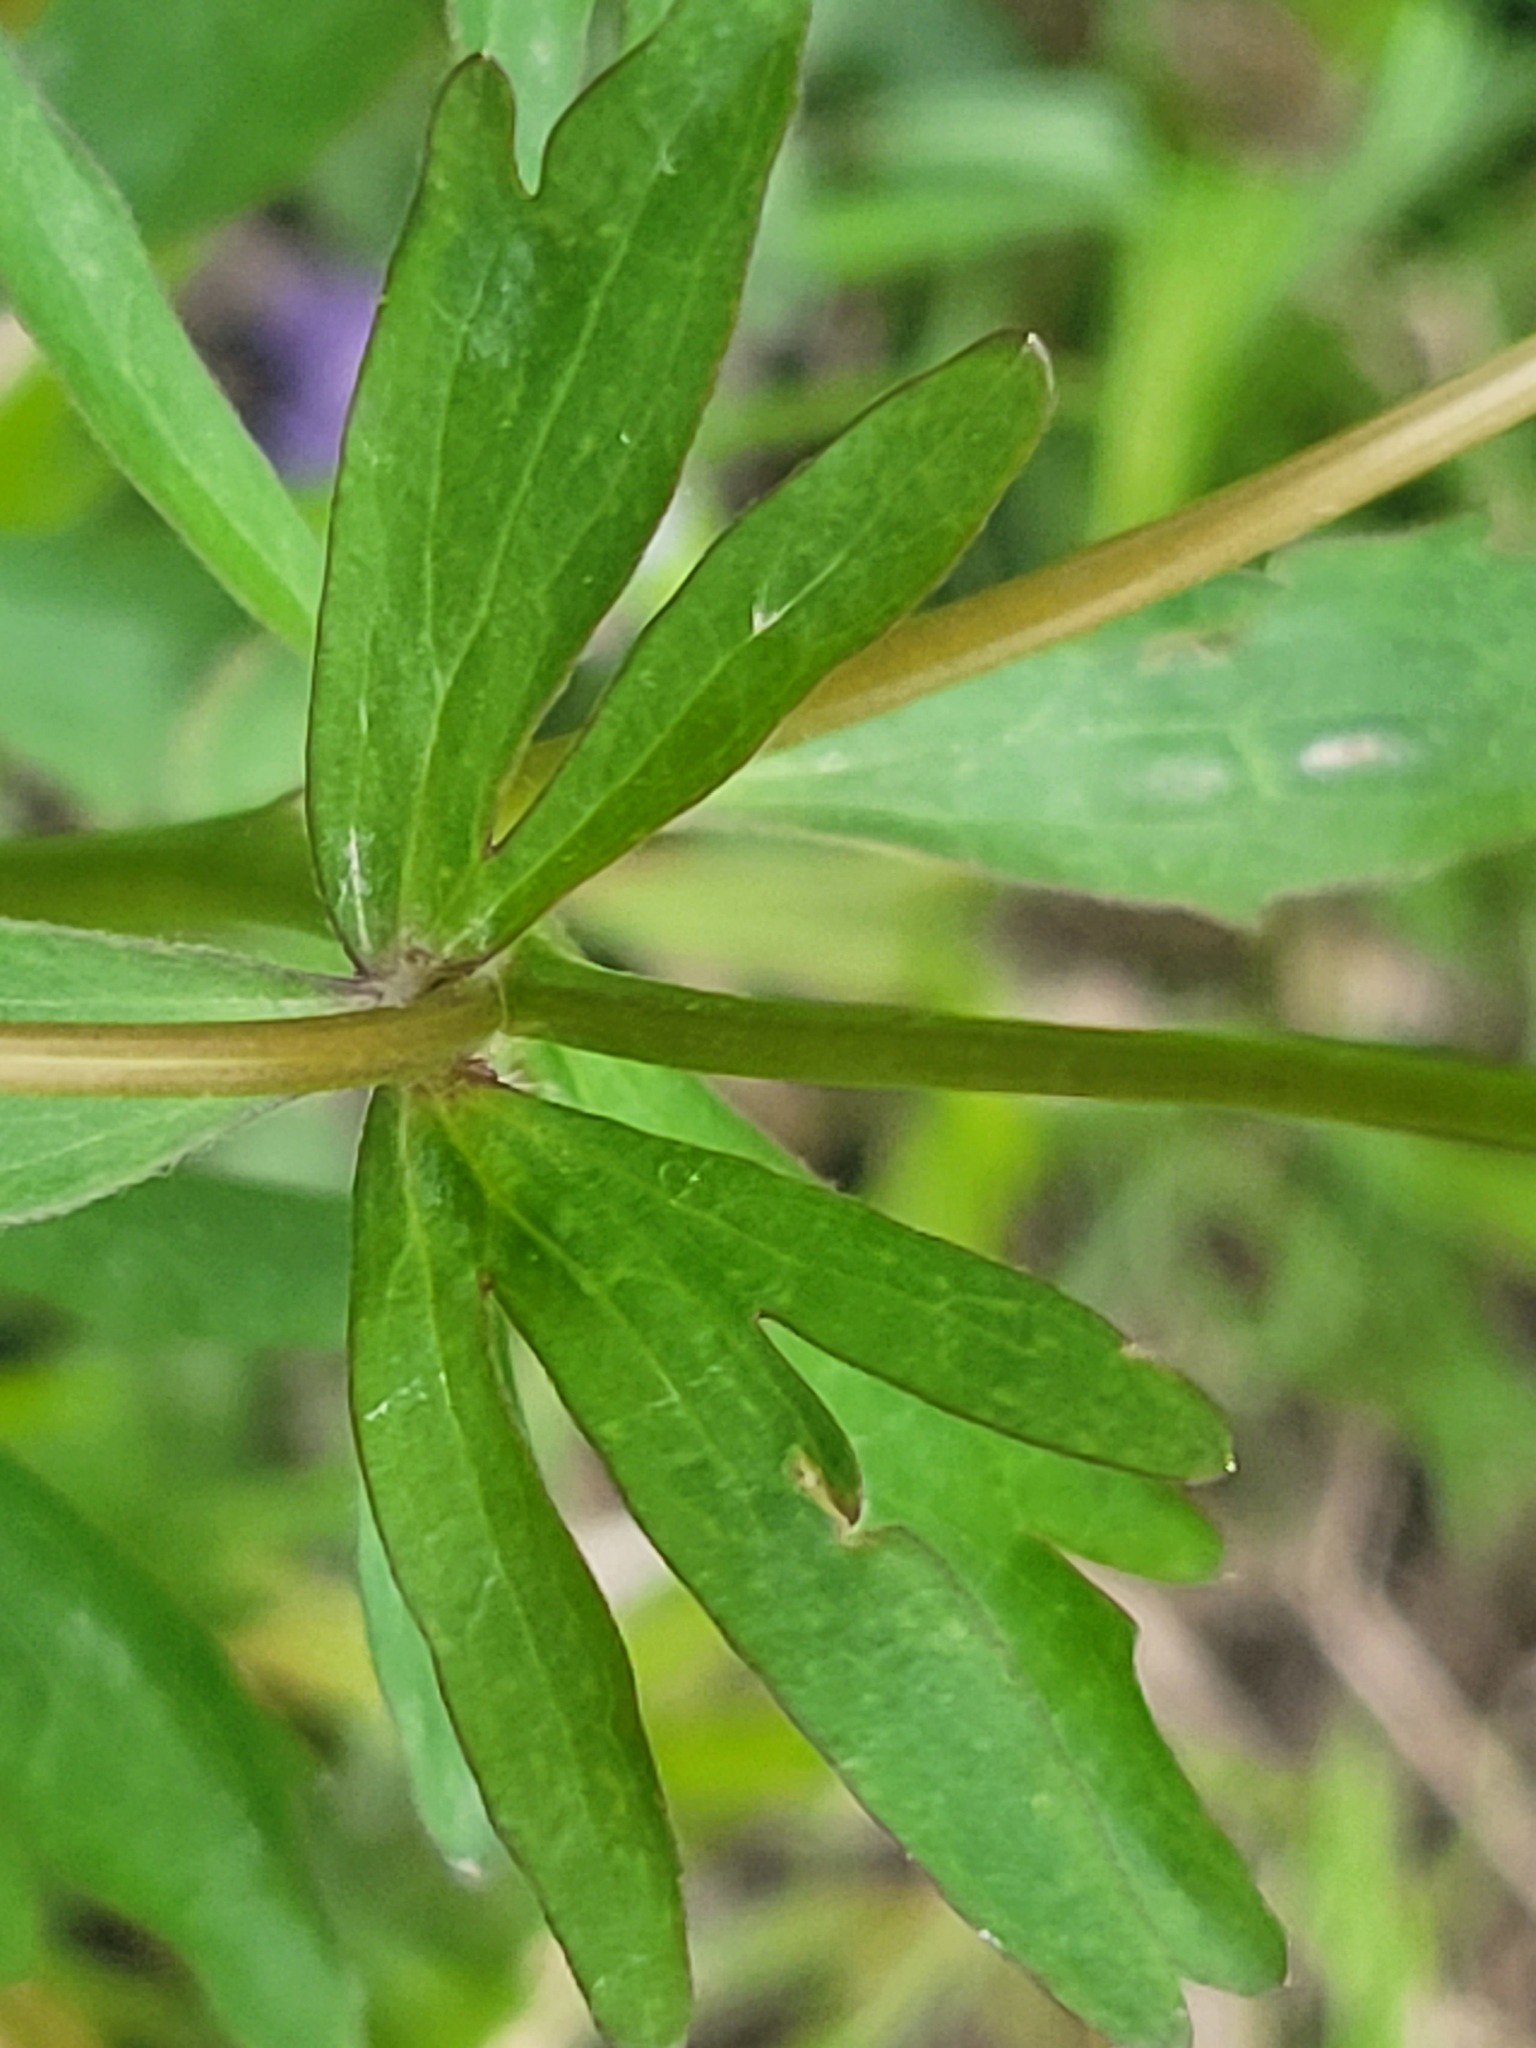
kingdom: Plantae
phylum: Tracheophyta
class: Magnoliopsida
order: Ranunculales
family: Ranunculaceae
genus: Ranunculus
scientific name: Ranunculus abortivus
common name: Early wood buttercup
